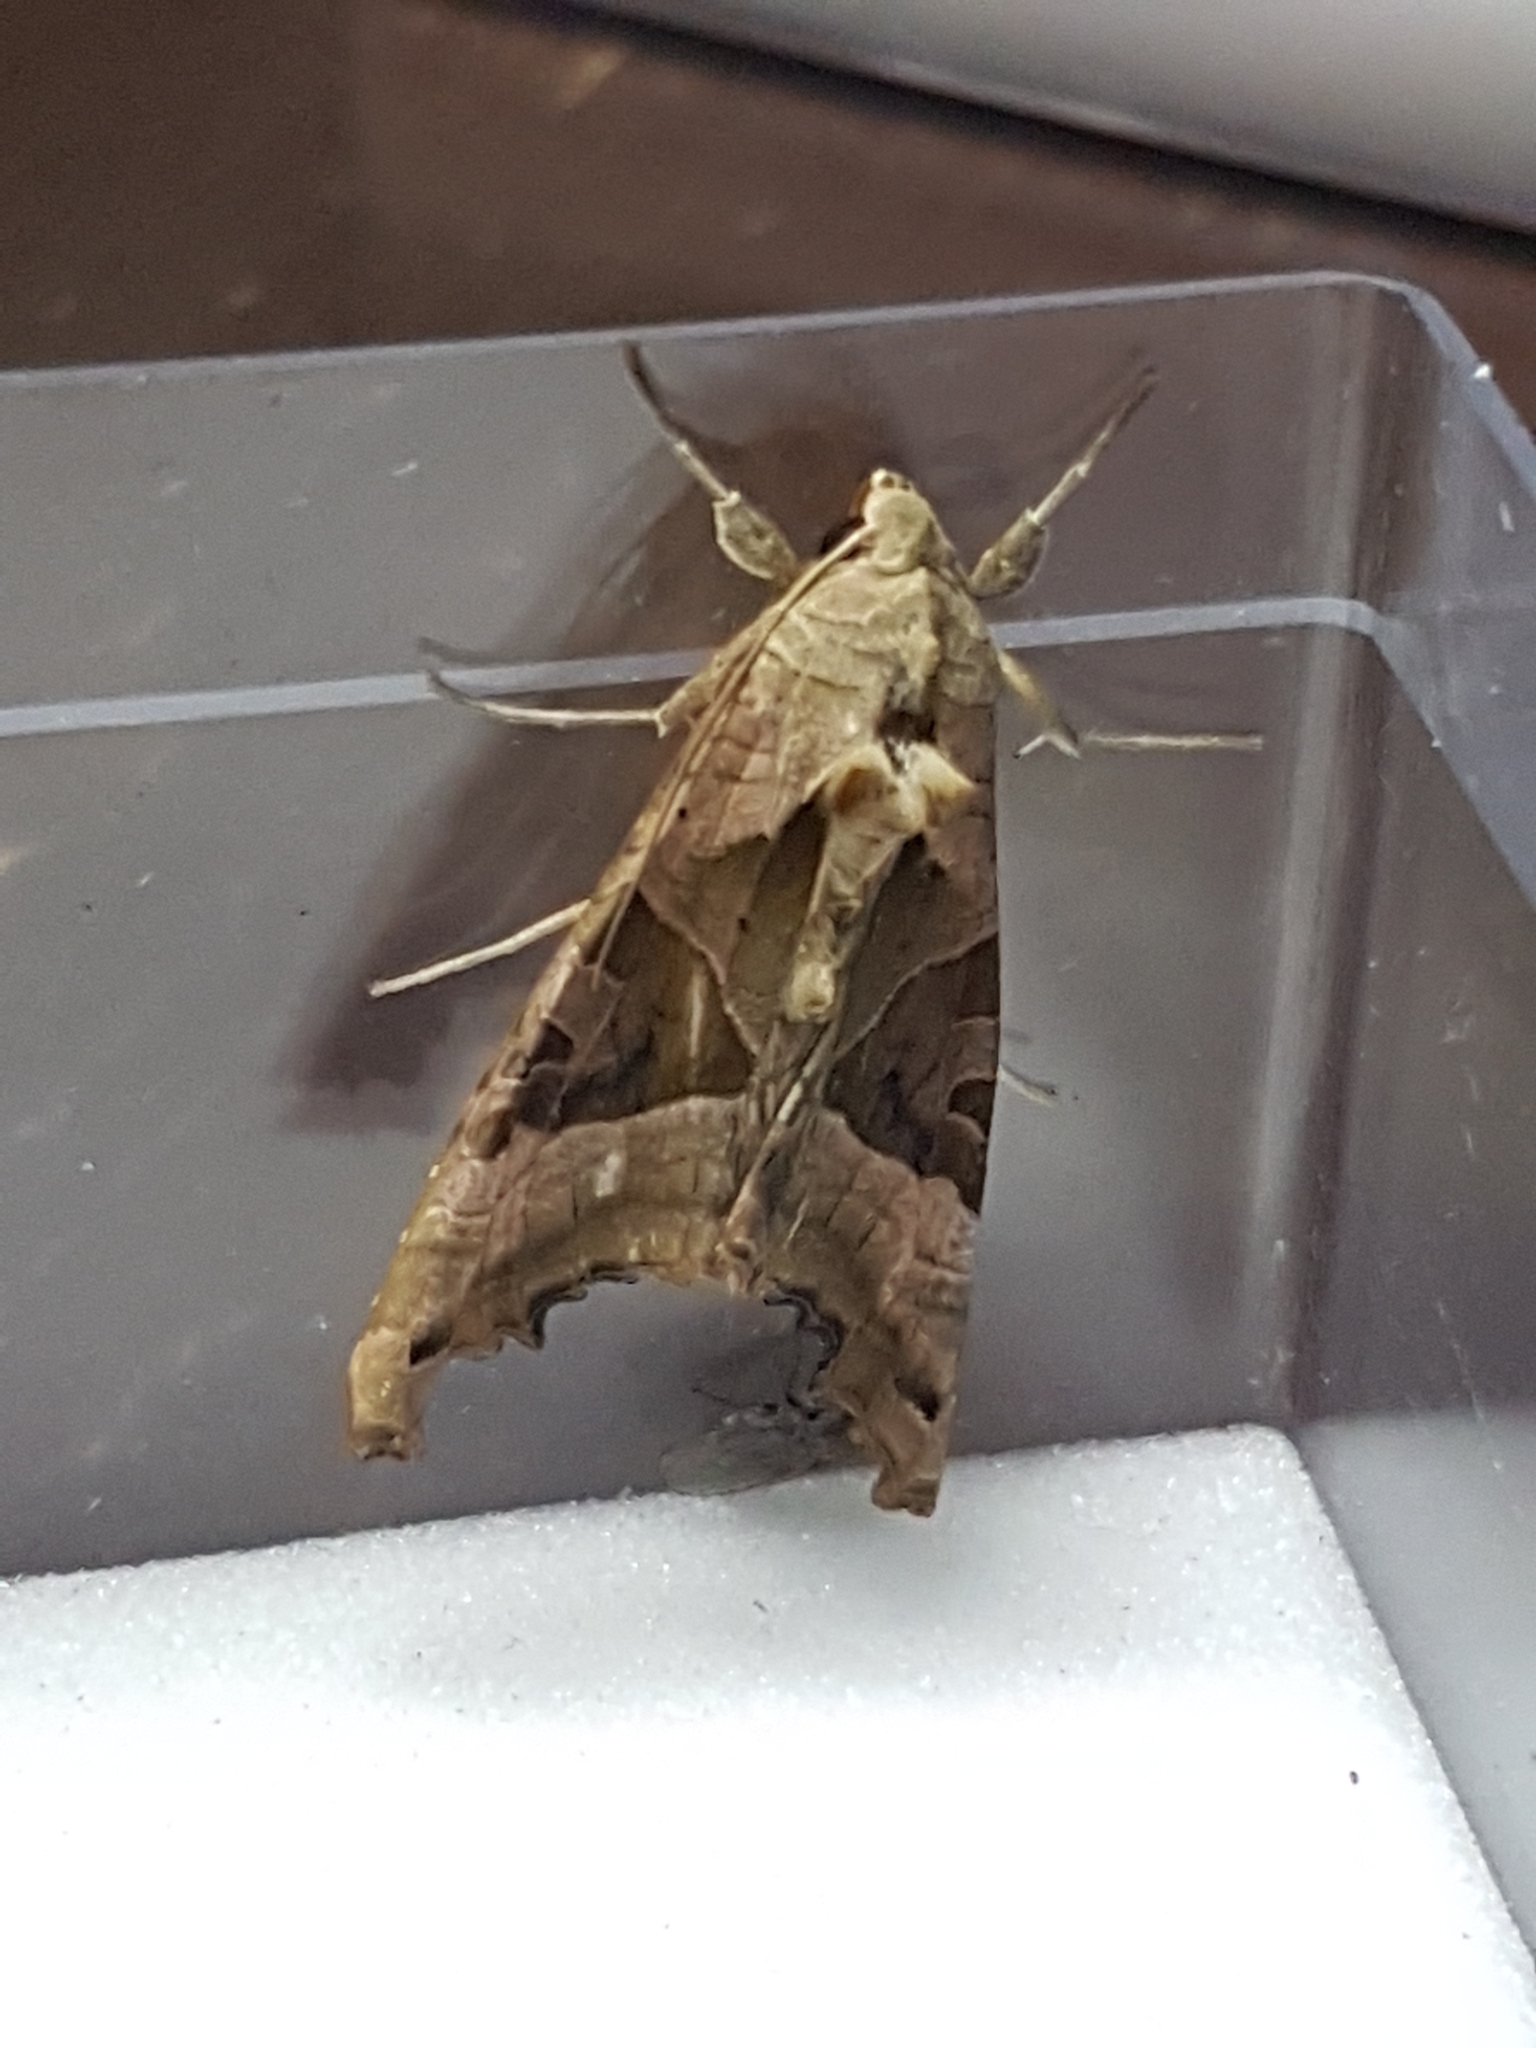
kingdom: Animalia
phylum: Arthropoda
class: Insecta
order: Lepidoptera
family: Noctuidae
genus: Phlogophora
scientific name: Phlogophora meticulosa
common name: Angle shades
